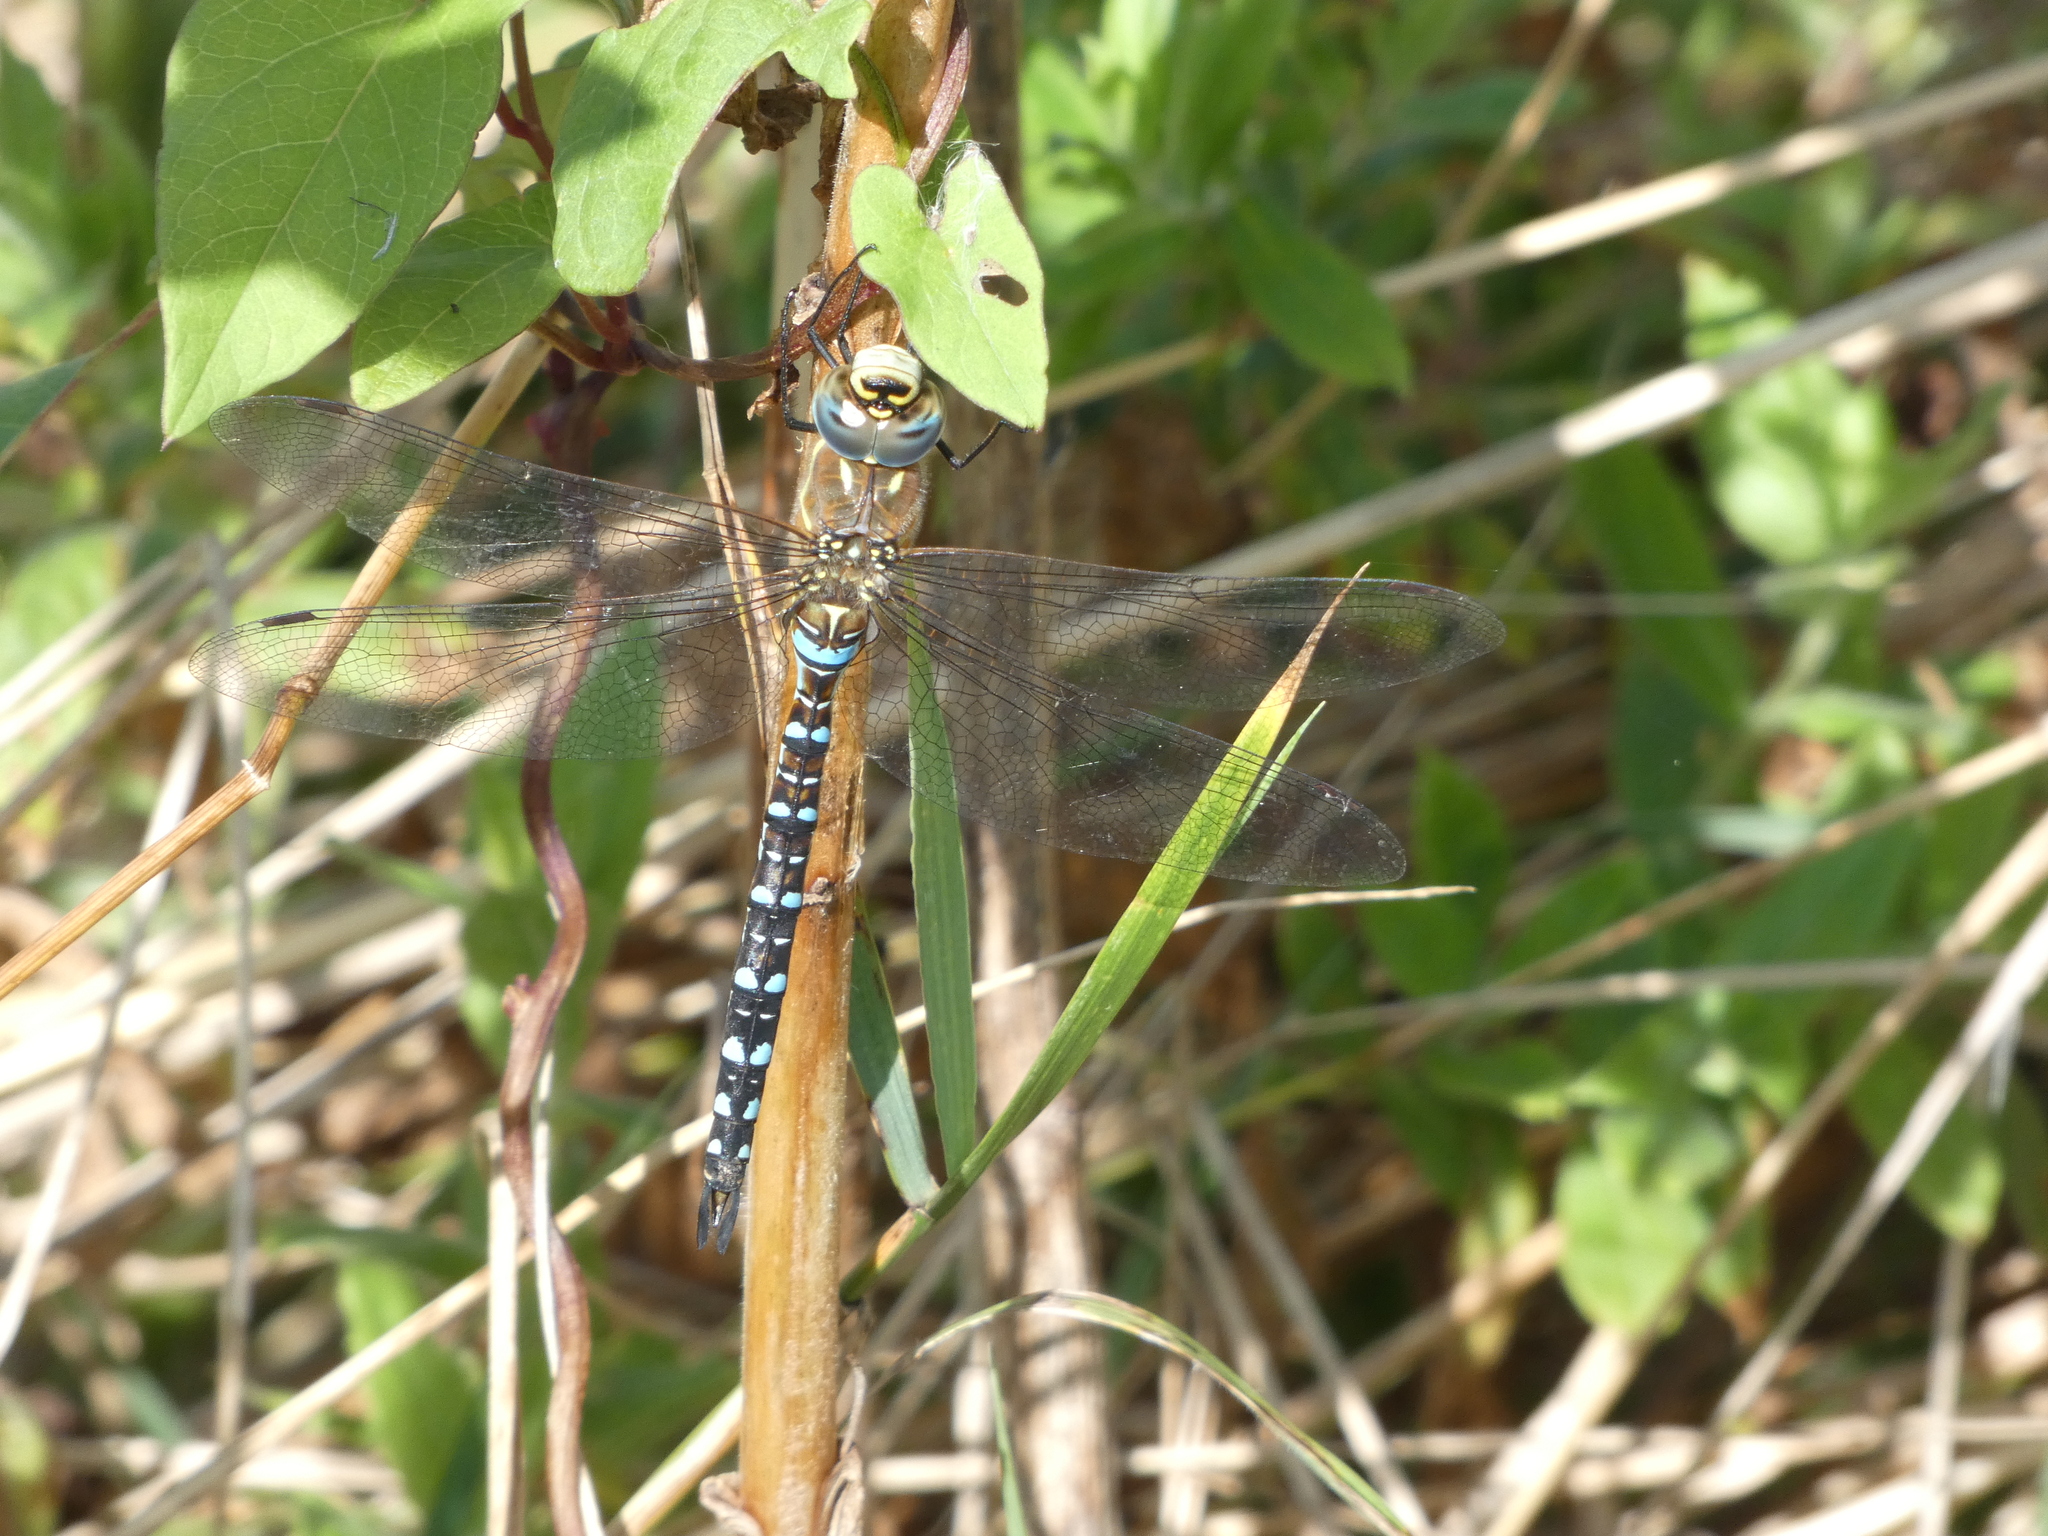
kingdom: Animalia
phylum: Arthropoda
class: Insecta
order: Odonata
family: Aeshnidae
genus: Aeshna
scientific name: Aeshna mixta
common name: Migrant hawker
